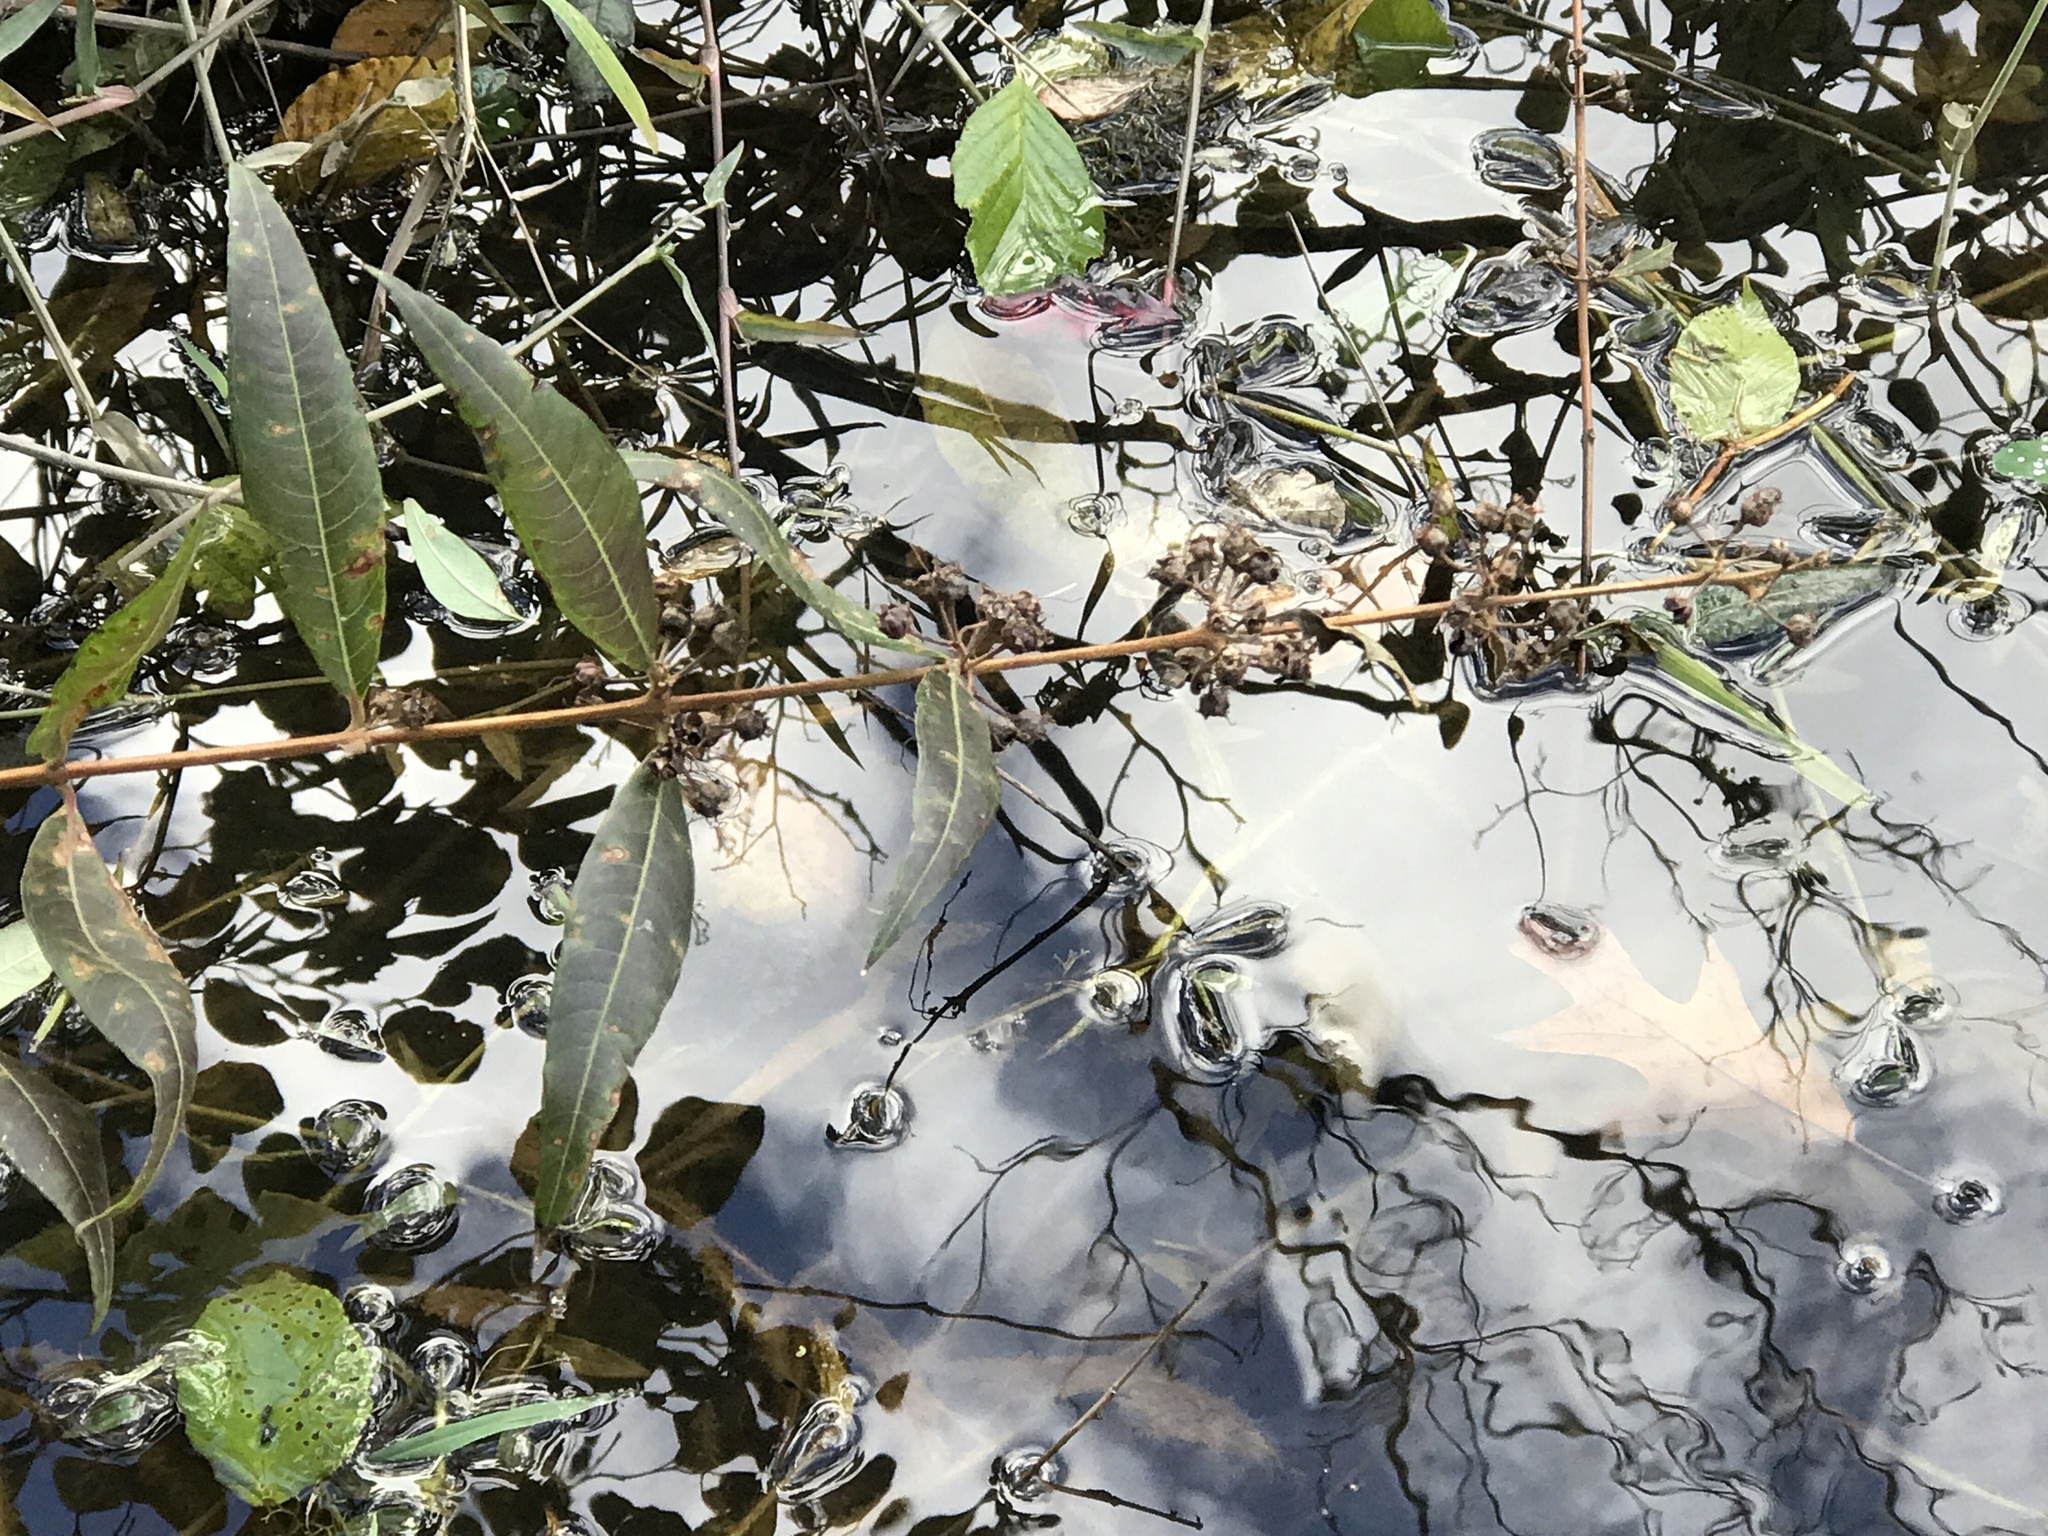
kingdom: Plantae
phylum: Tracheophyta
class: Magnoliopsida
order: Myrtales
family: Lythraceae
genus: Decodon
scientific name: Decodon verticillatus
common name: Hairy swamp loosestrife
